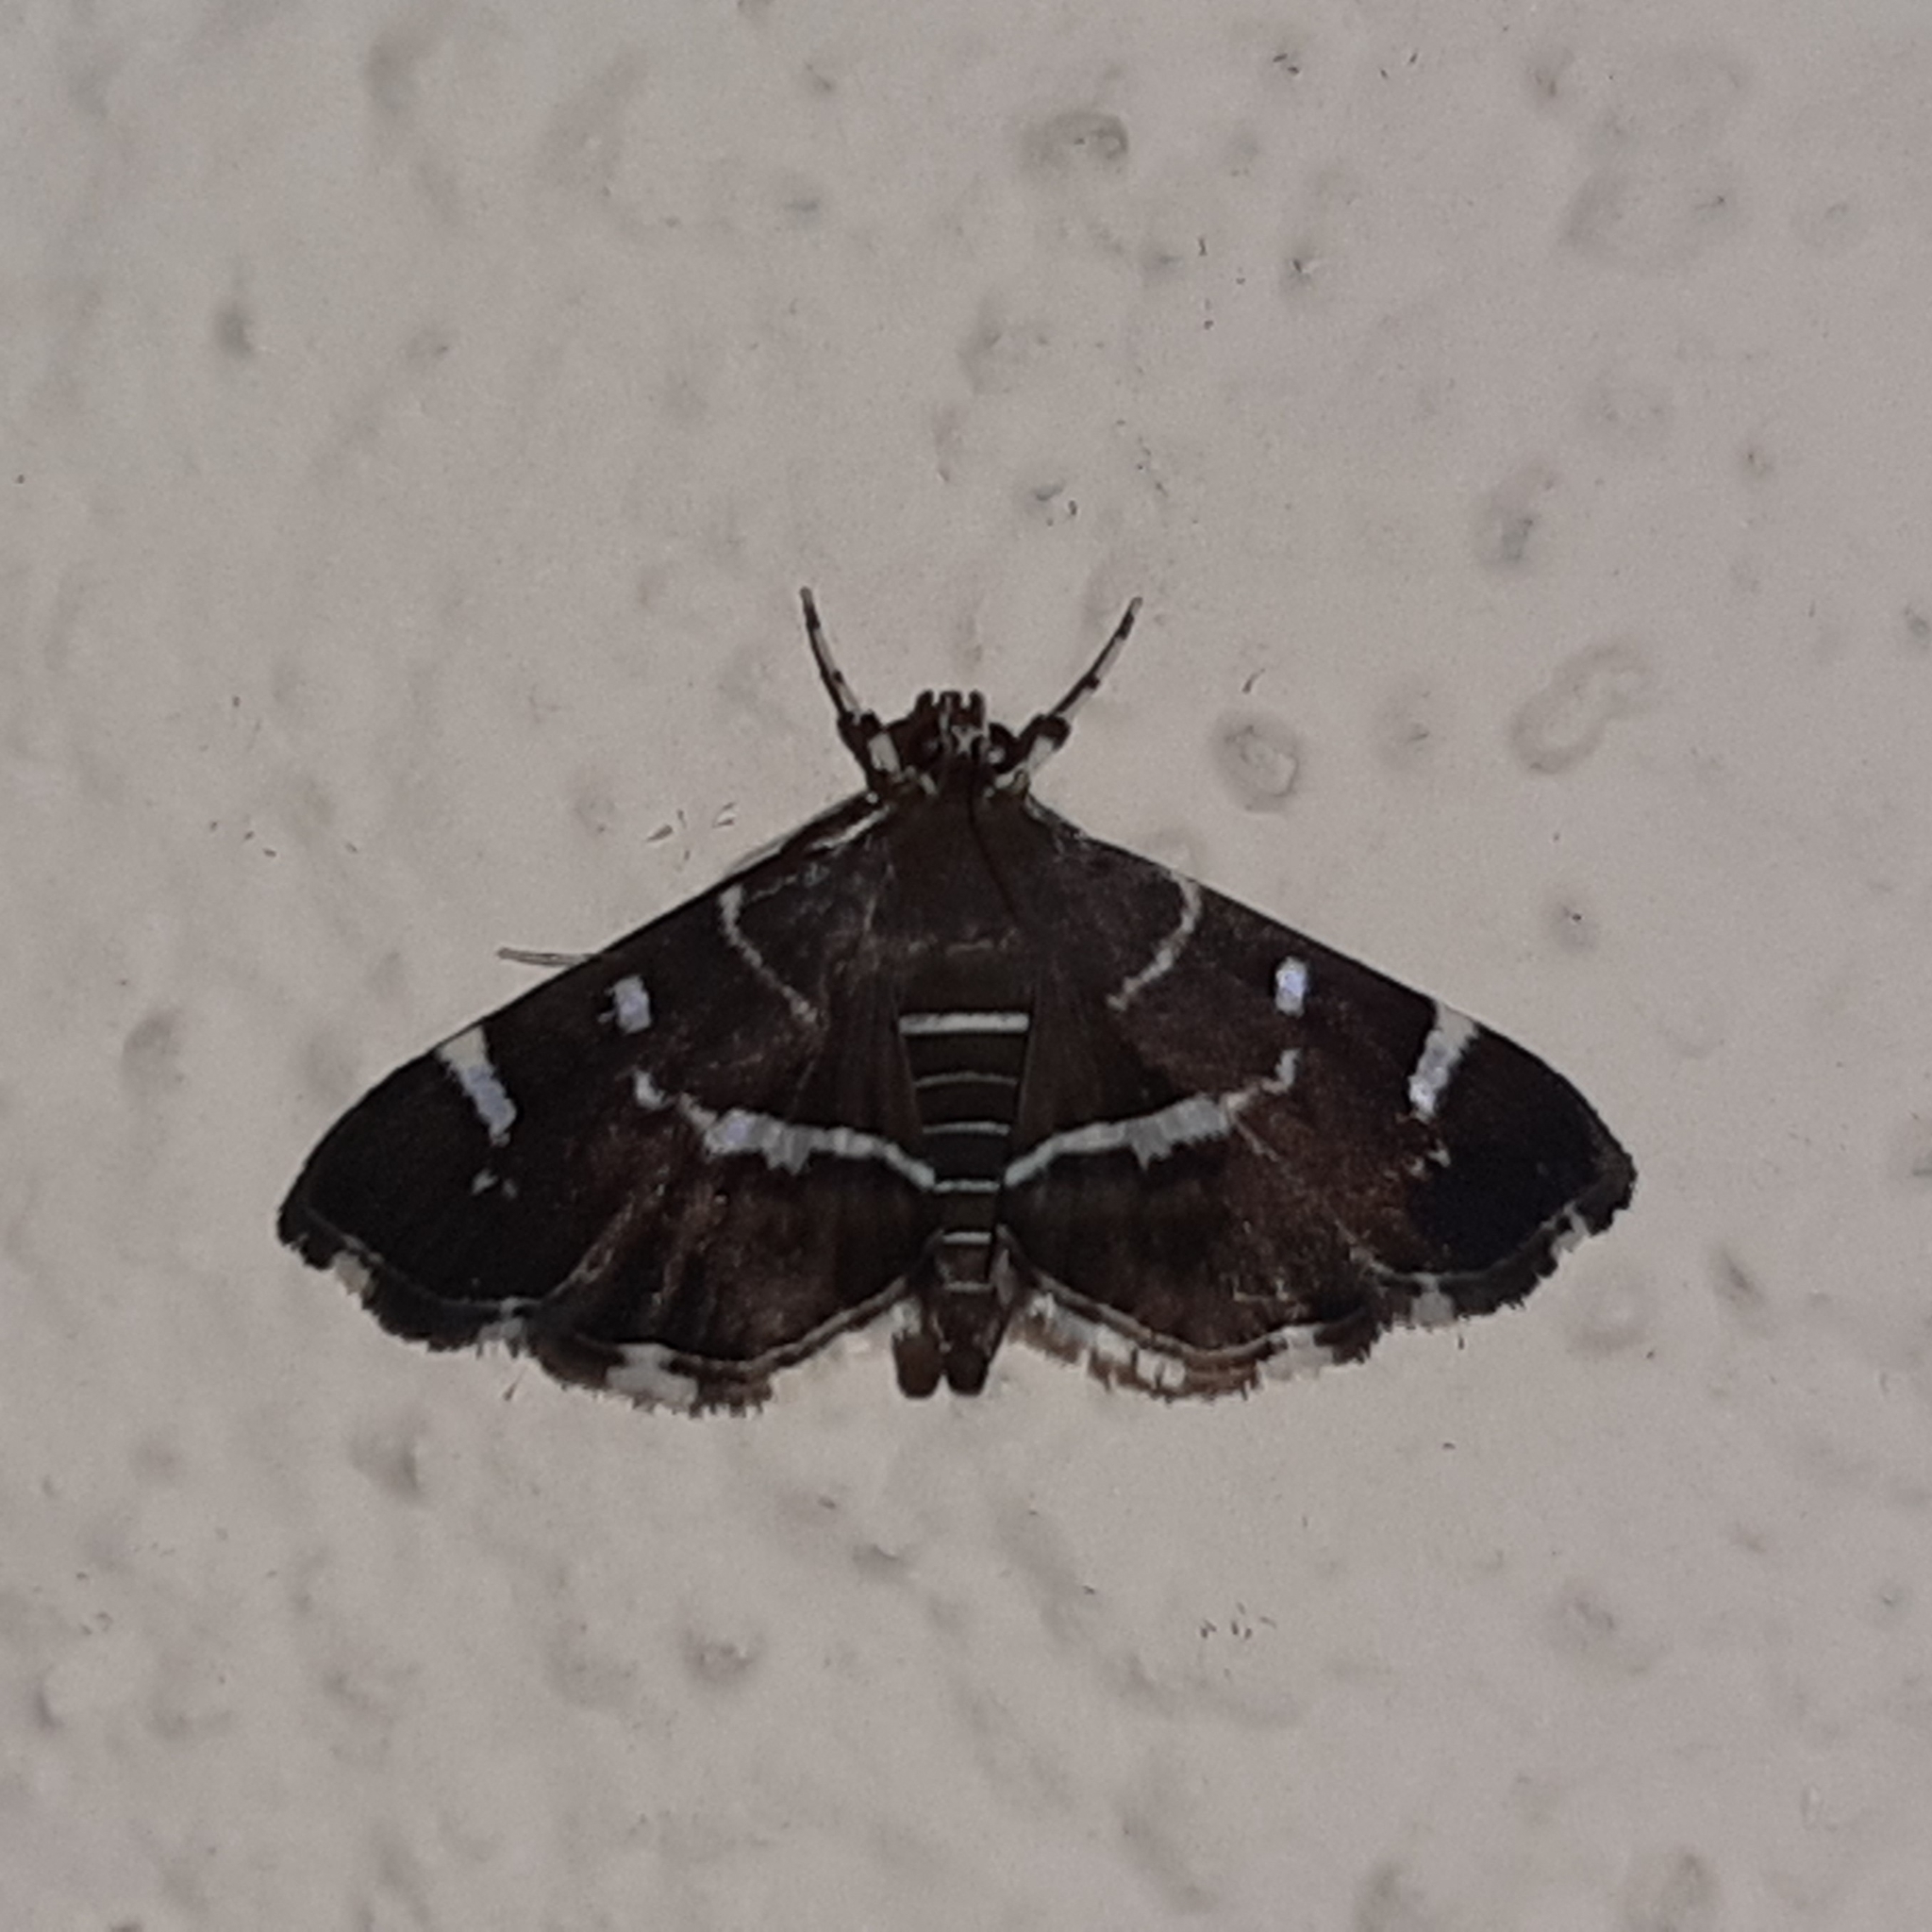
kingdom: Animalia
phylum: Arthropoda
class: Insecta
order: Lepidoptera
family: Crambidae
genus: Hymenia
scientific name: Hymenia perspectalis
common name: Spotted beet webworm
